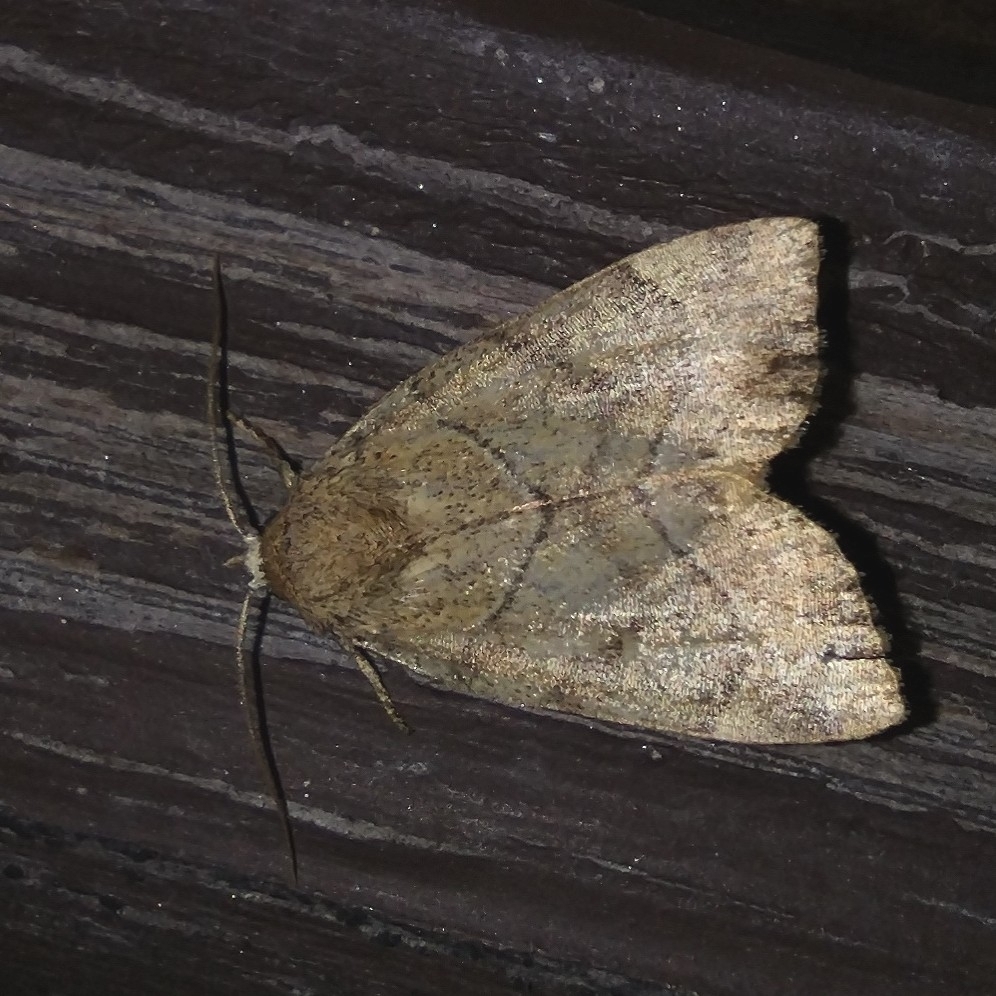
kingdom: Animalia
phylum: Arthropoda
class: Insecta
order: Lepidoptera
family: Noctuidae
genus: Cosmia
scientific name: Cosmia trapezina
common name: Dun-bar
